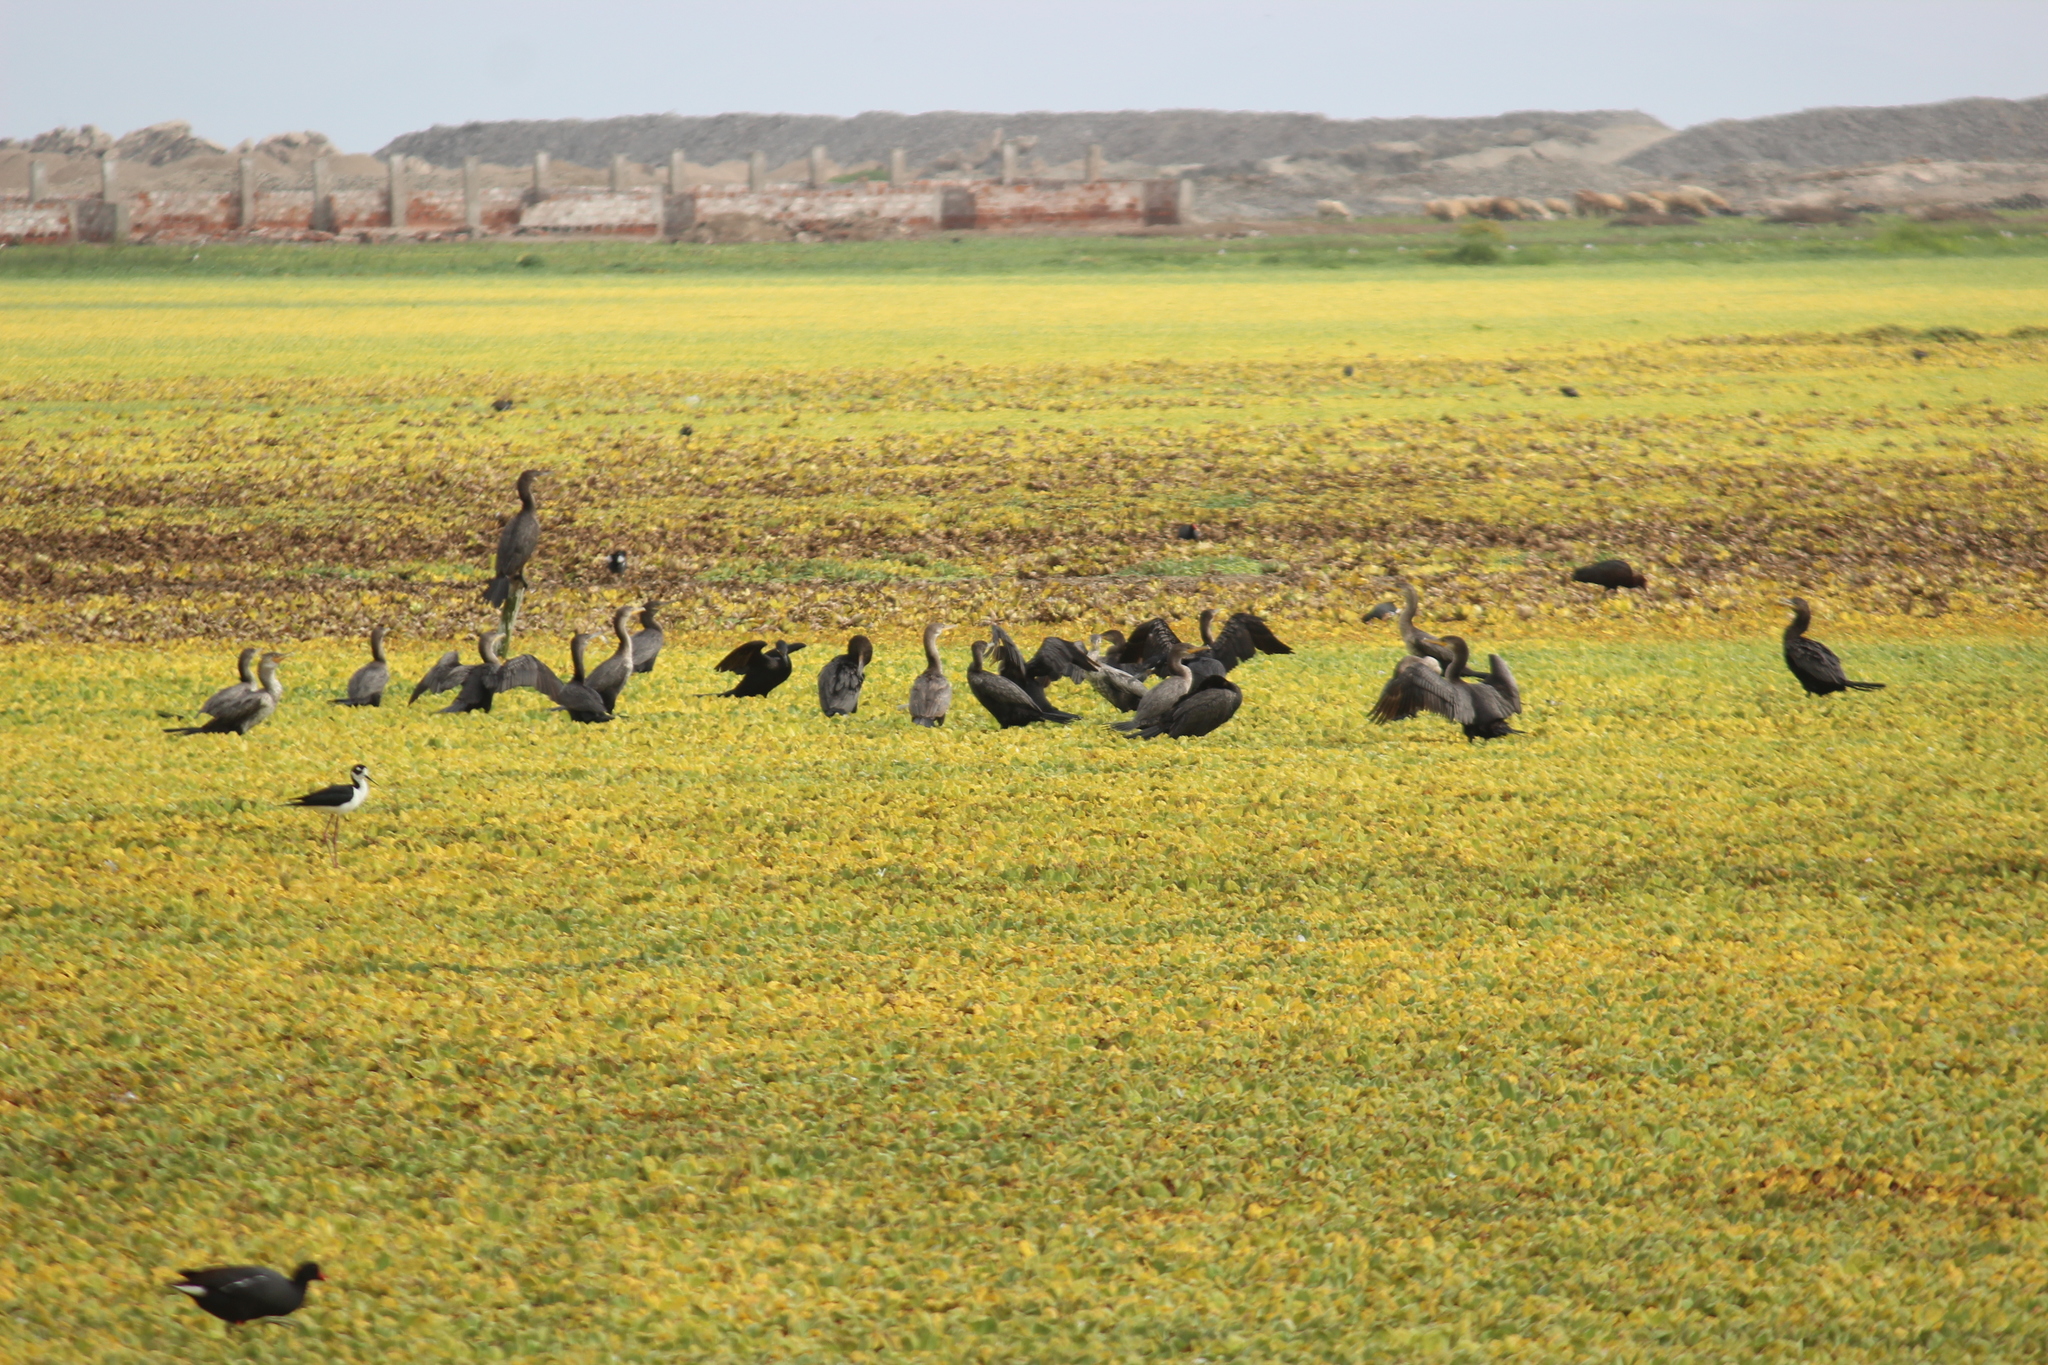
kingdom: Animalia
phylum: Chordata
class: Aves
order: Suliformes
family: Phalacrocoracidae
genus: Phalacrocorax
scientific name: Phalacrocorax brasilianus
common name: Neotropic cormorant
